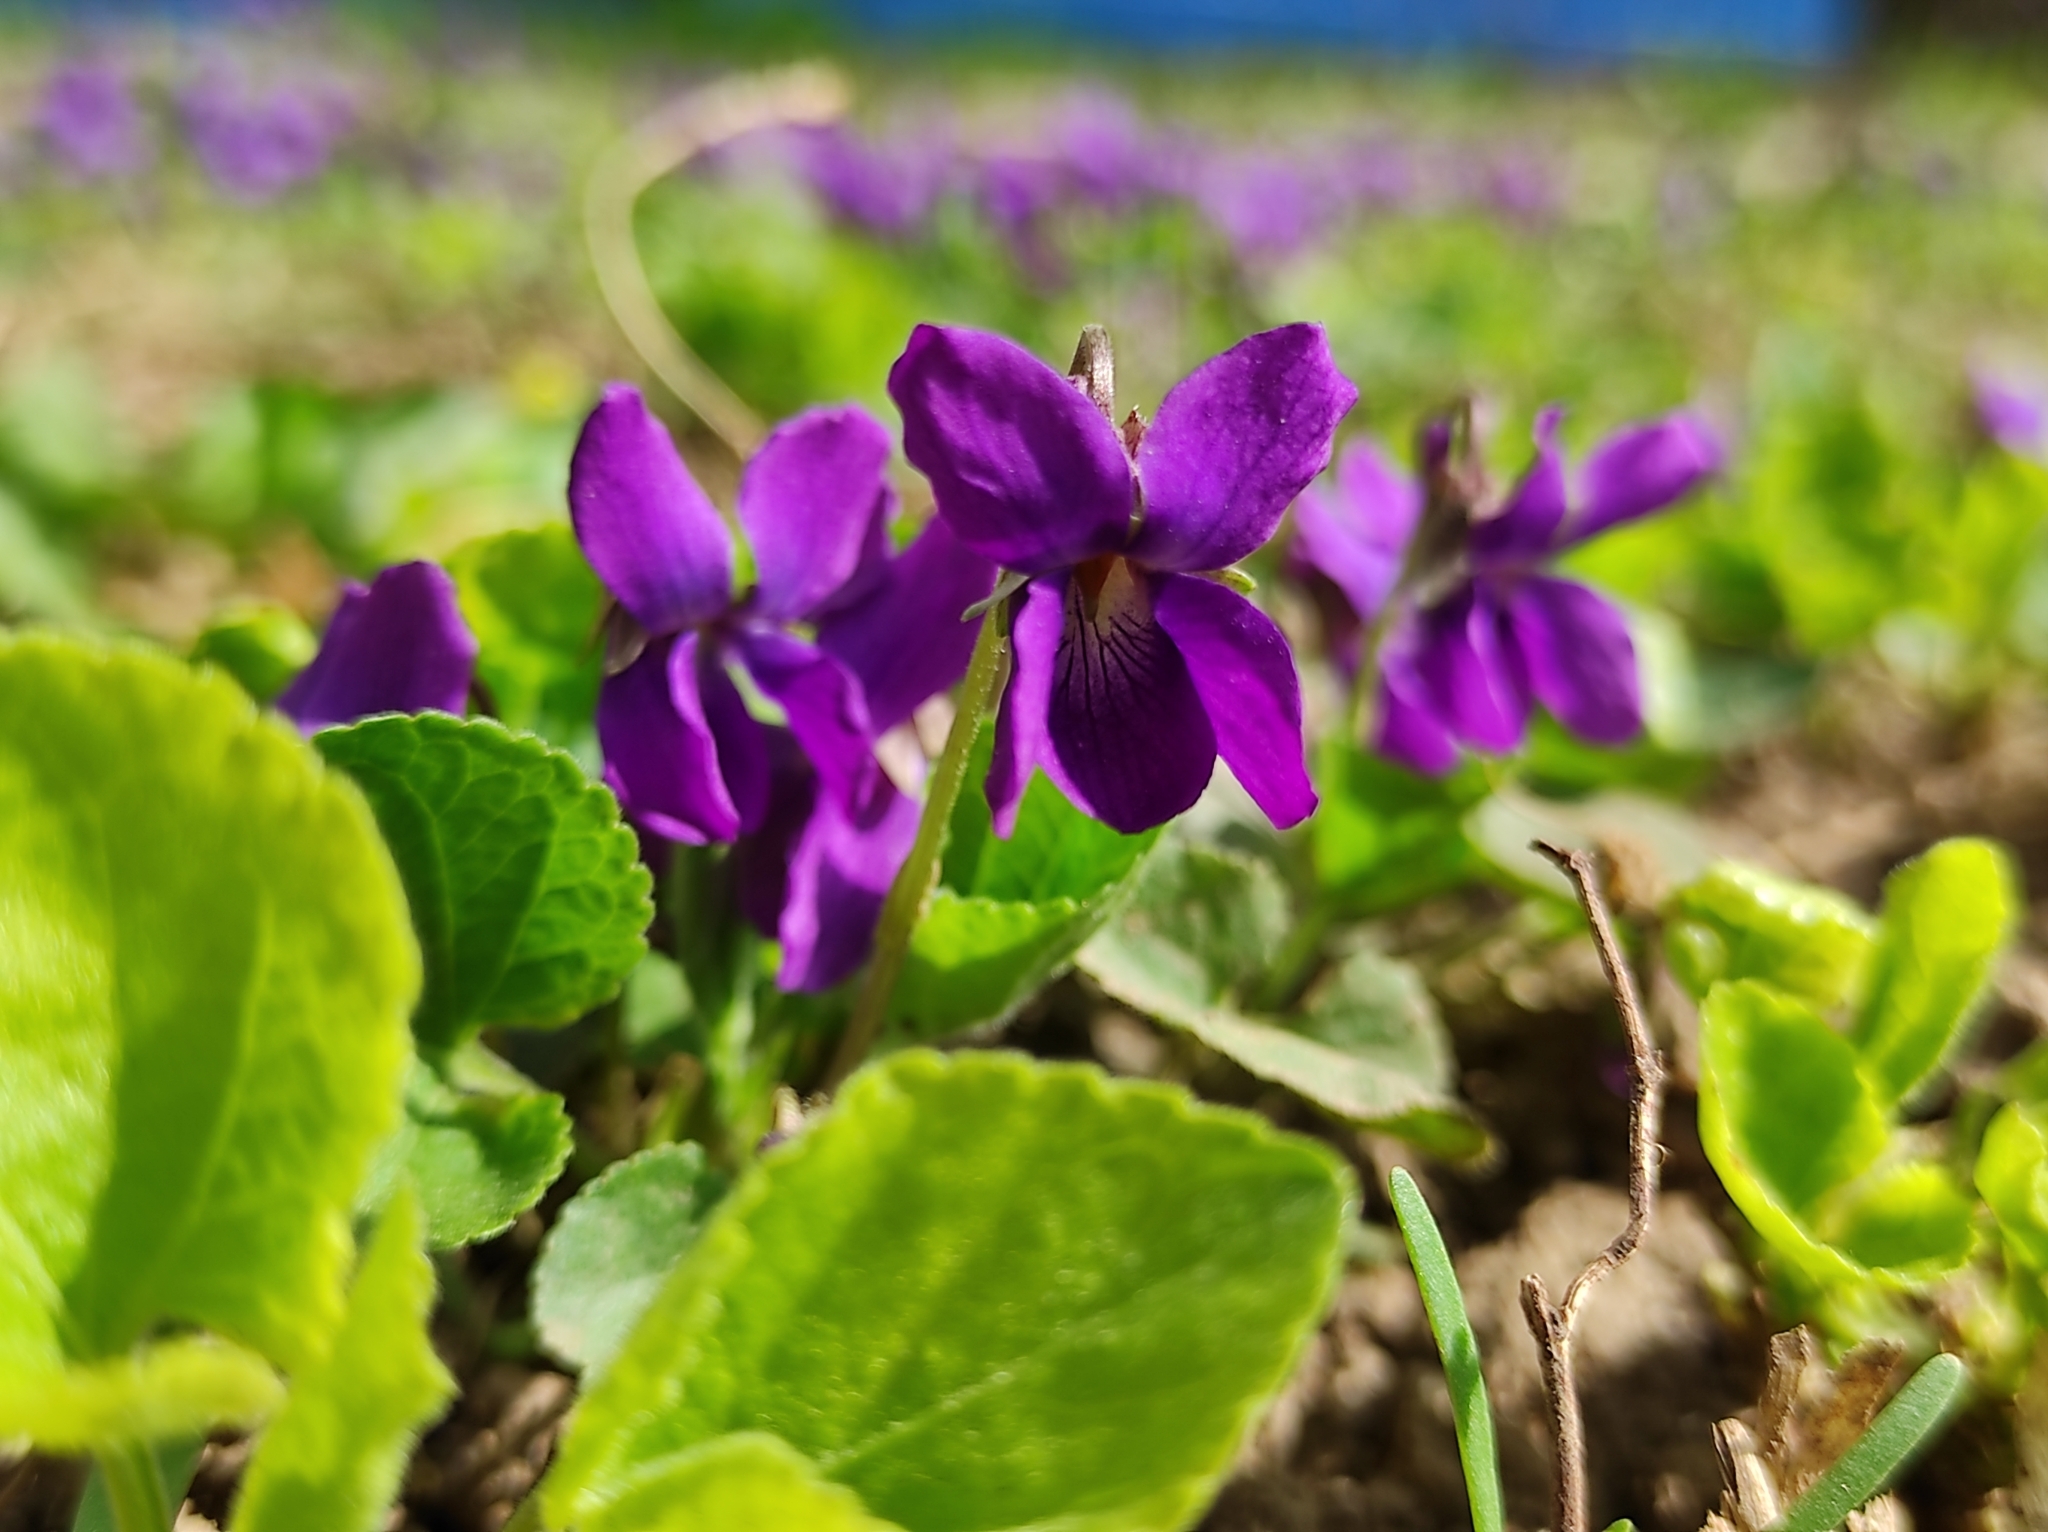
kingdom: Plantae
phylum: Tracheophyta
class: Magnoliopsida
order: Malpighiales
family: Violaceae
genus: Viola
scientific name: Viola odorata
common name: Sweet violet
